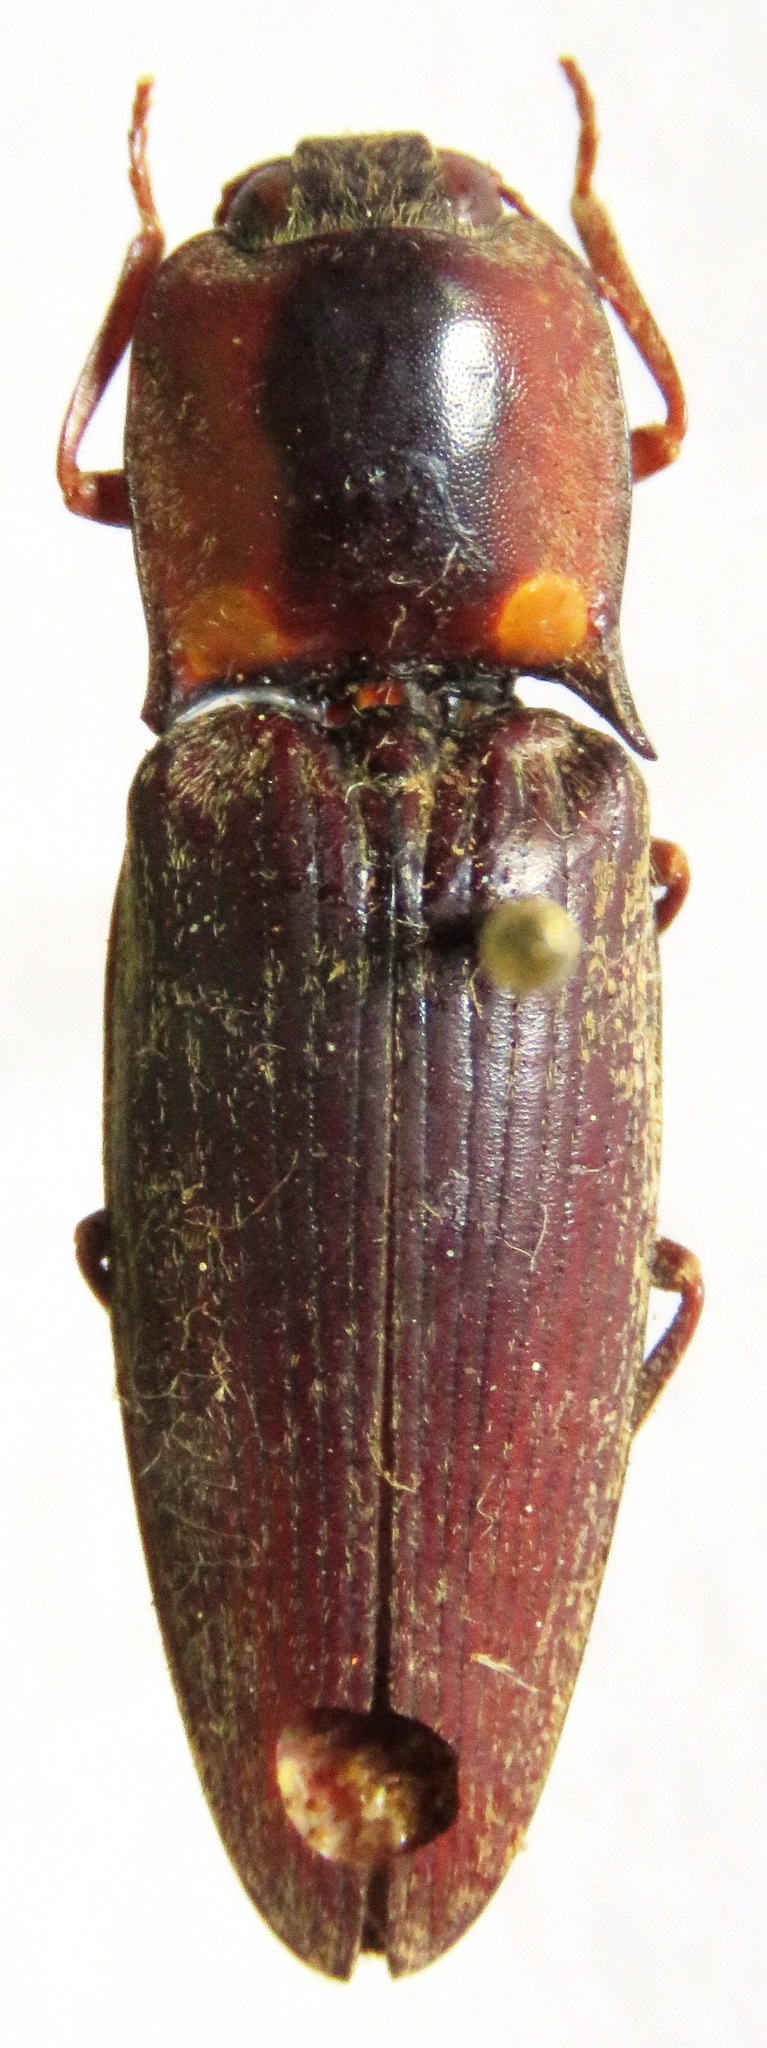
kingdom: Animalia
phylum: Arthropoda
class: Insecta
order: Coleoptera
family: Elateridae
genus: Pyrearinus
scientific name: Pyrearinus amplicollis
